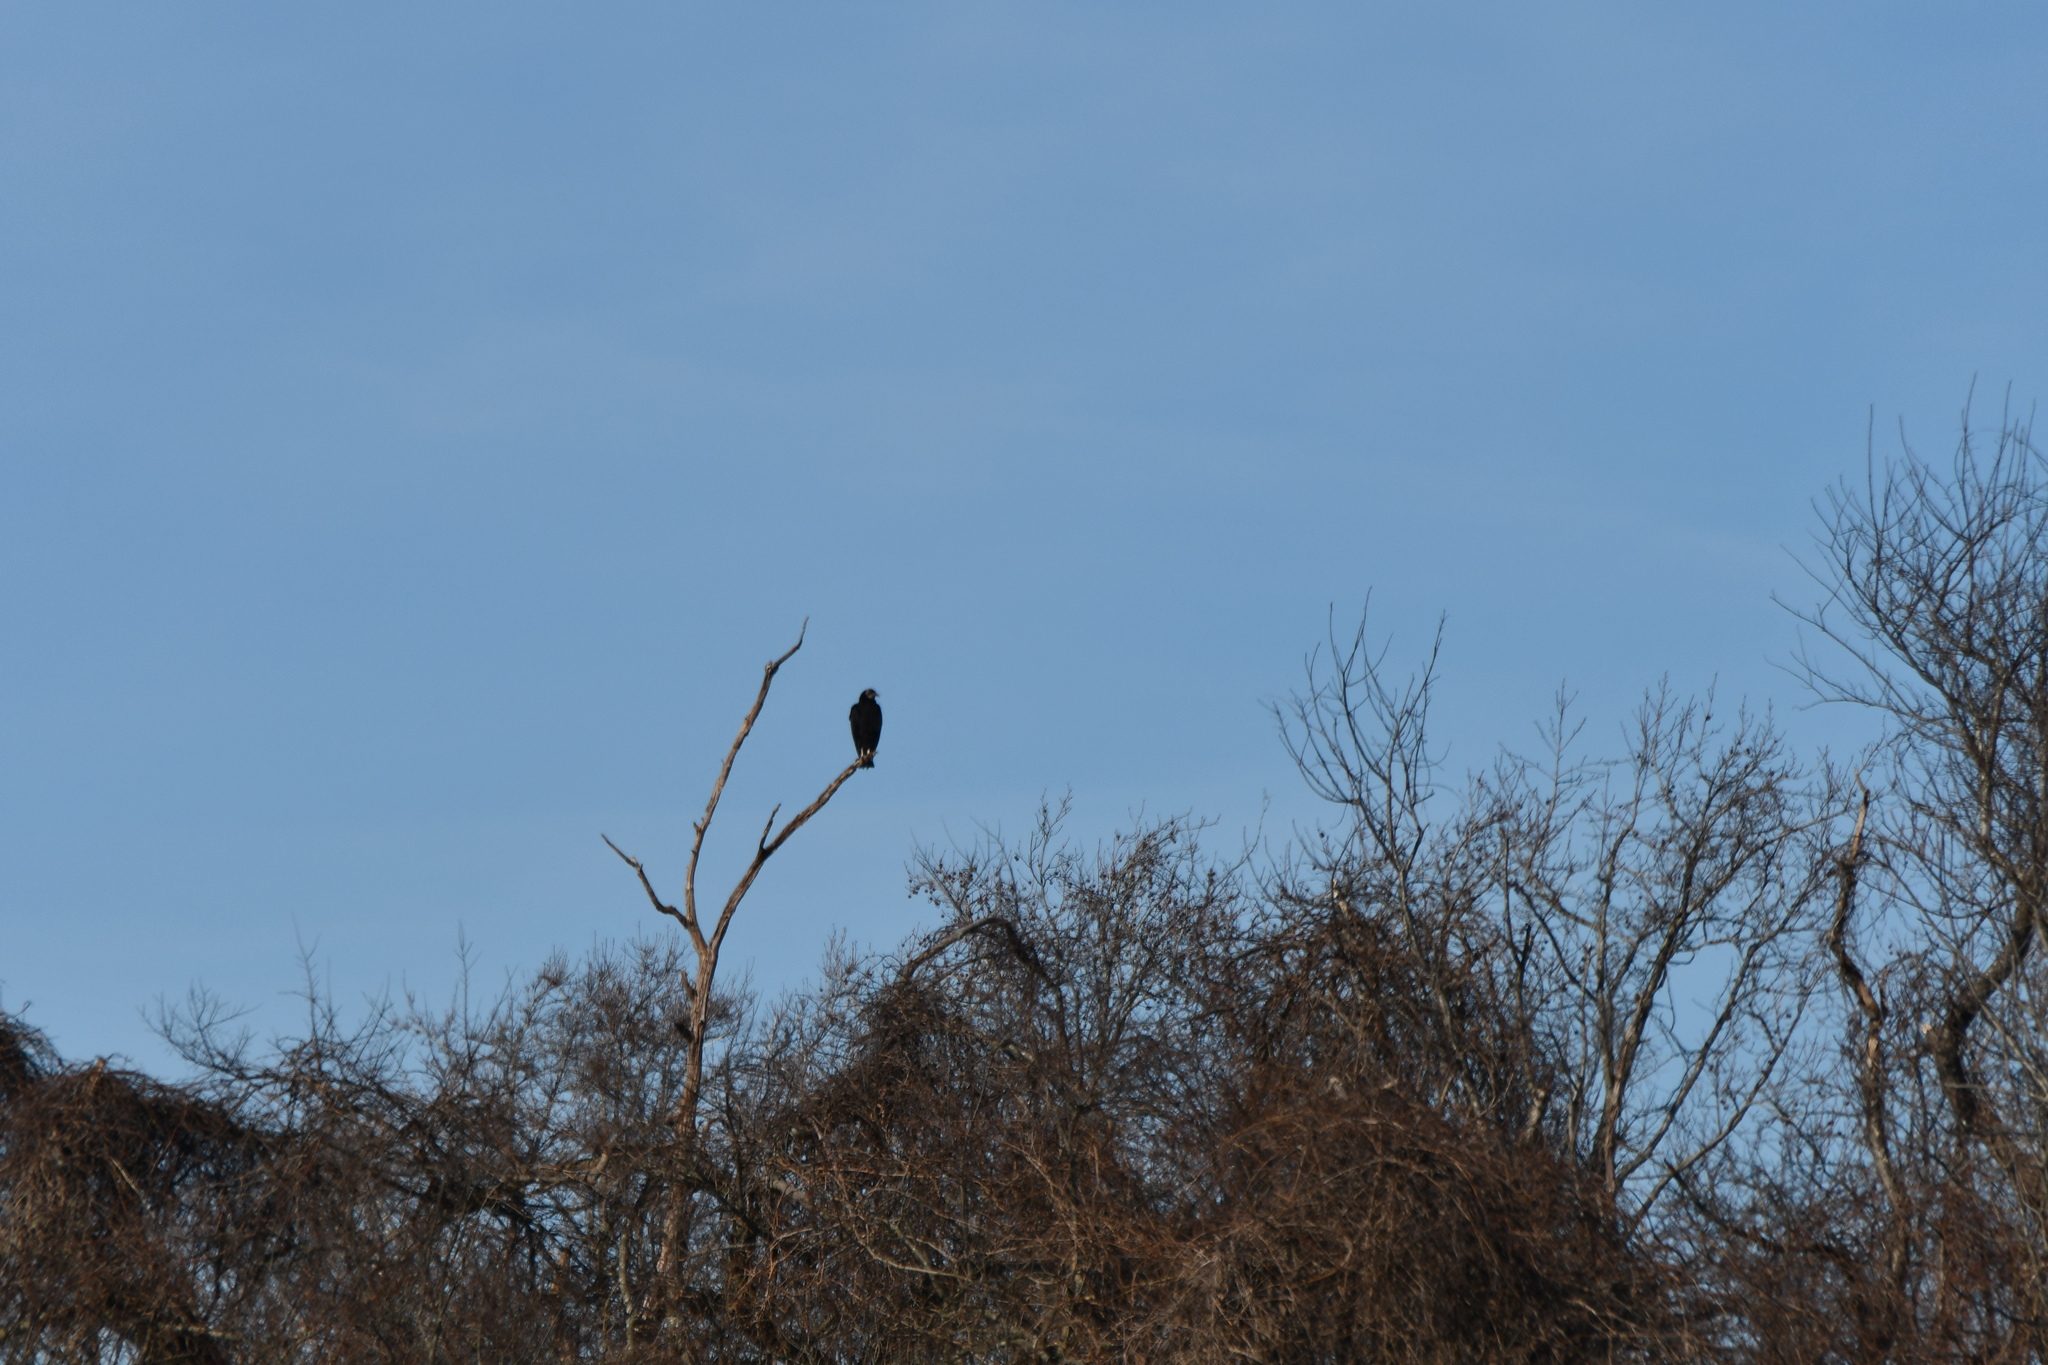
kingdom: Animalia
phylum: Chordata
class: Aves
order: Accipitriformes
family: Cathartidae
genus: Coragyps
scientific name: Coragyps atratus
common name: Black vulture
